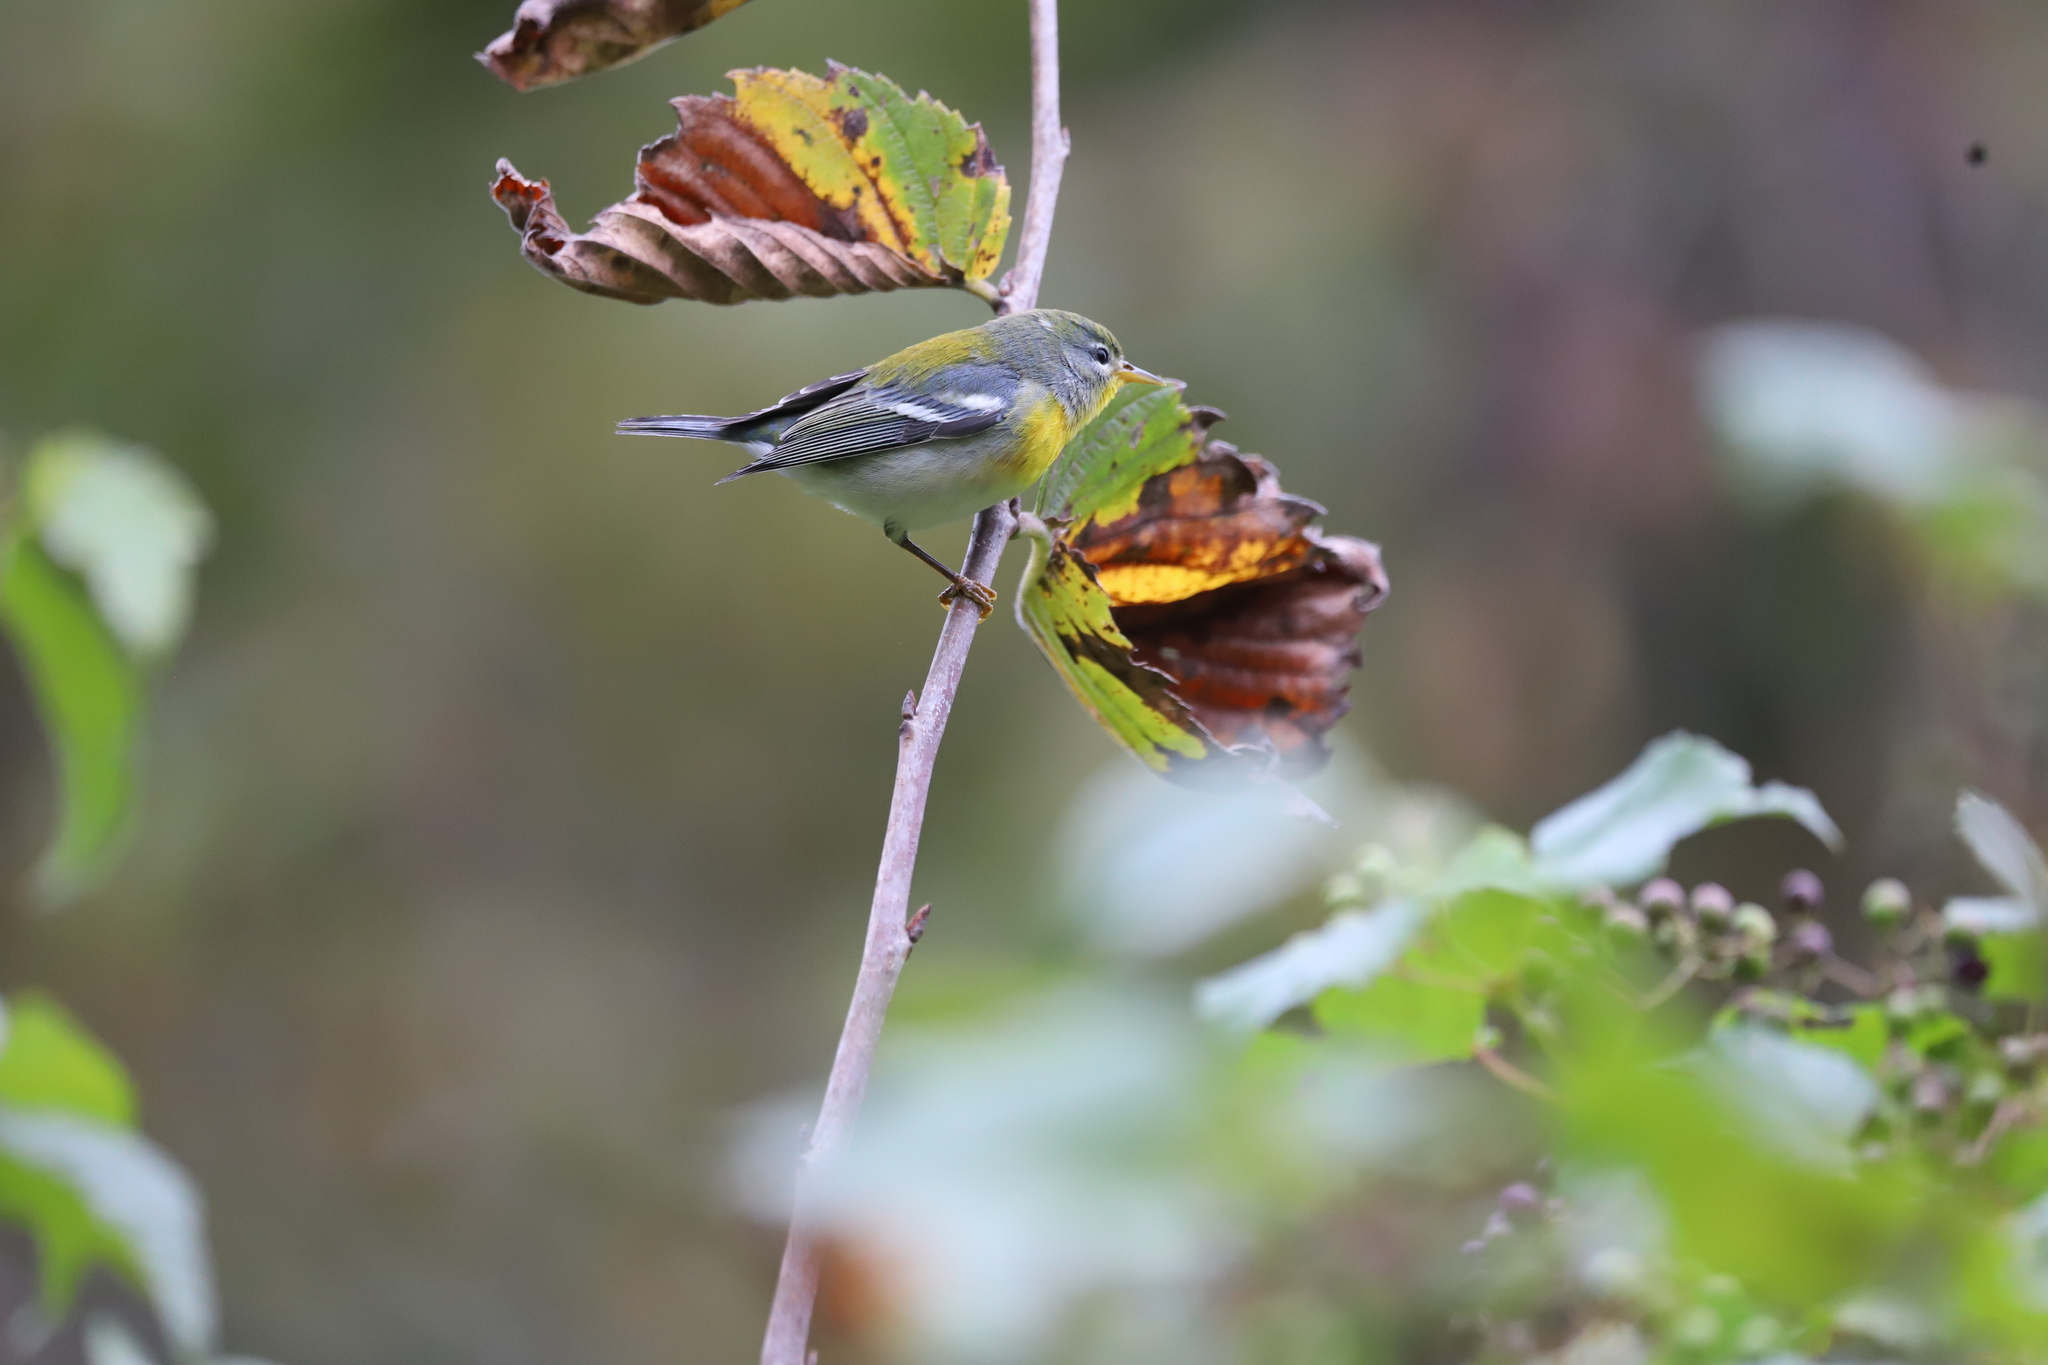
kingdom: Animalia
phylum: Chordata
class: Aves
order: Passeriformes
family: Parulidae
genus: Setophaga
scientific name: Setophaga americana
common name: Northern parula
